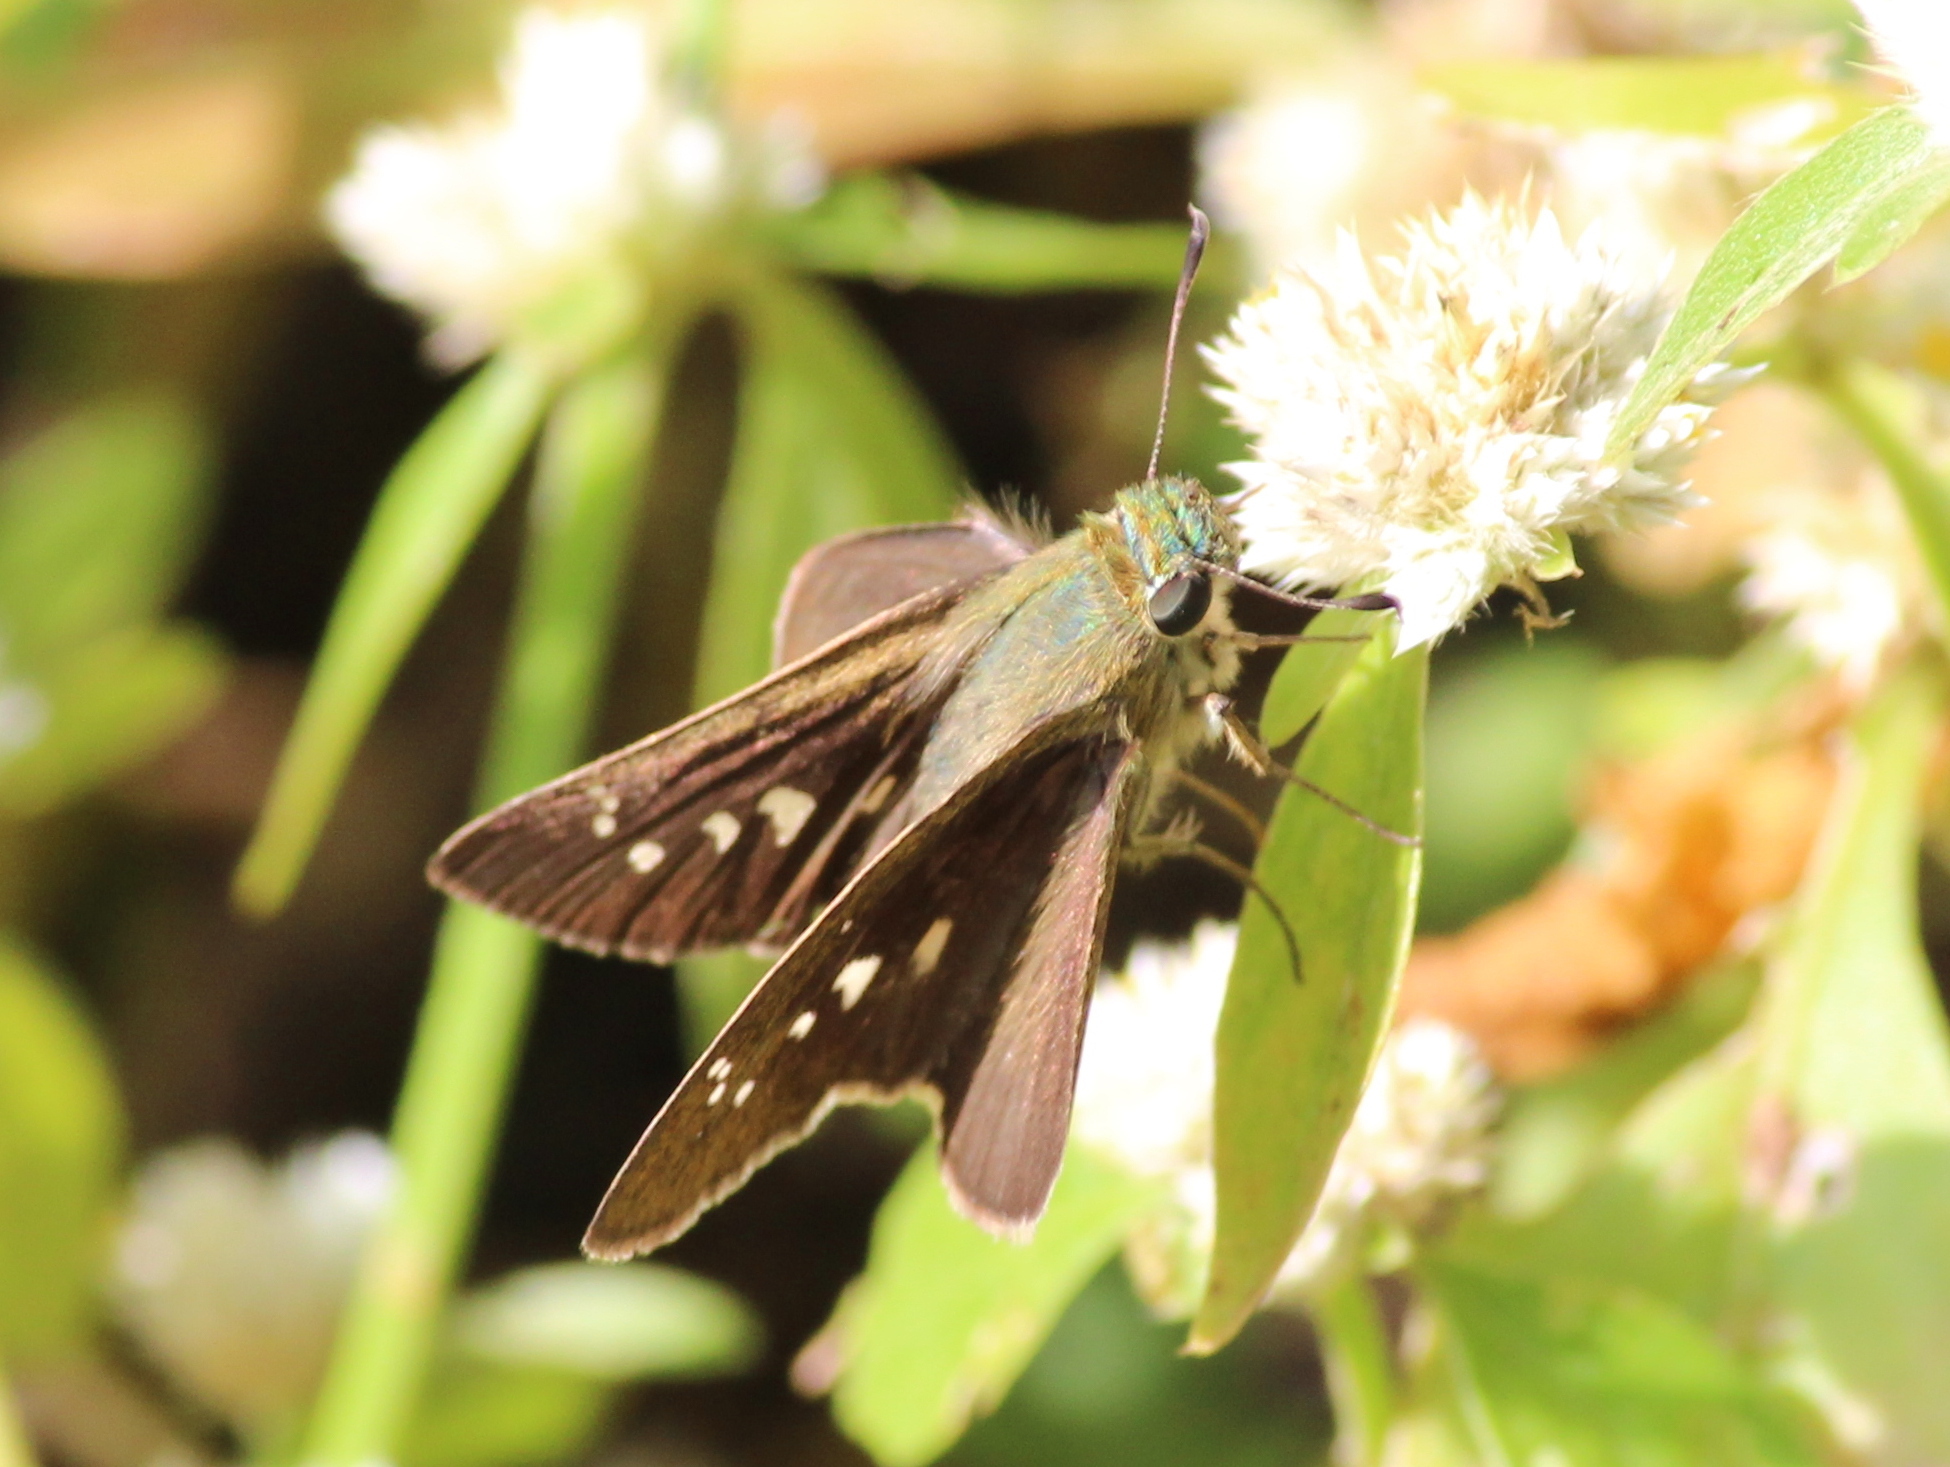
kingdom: Animalia
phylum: Arthropoda
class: Insecta
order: Lepidoptera
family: Hesperiidae
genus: Borbo
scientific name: Borbo cinnara
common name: Formosan swift
